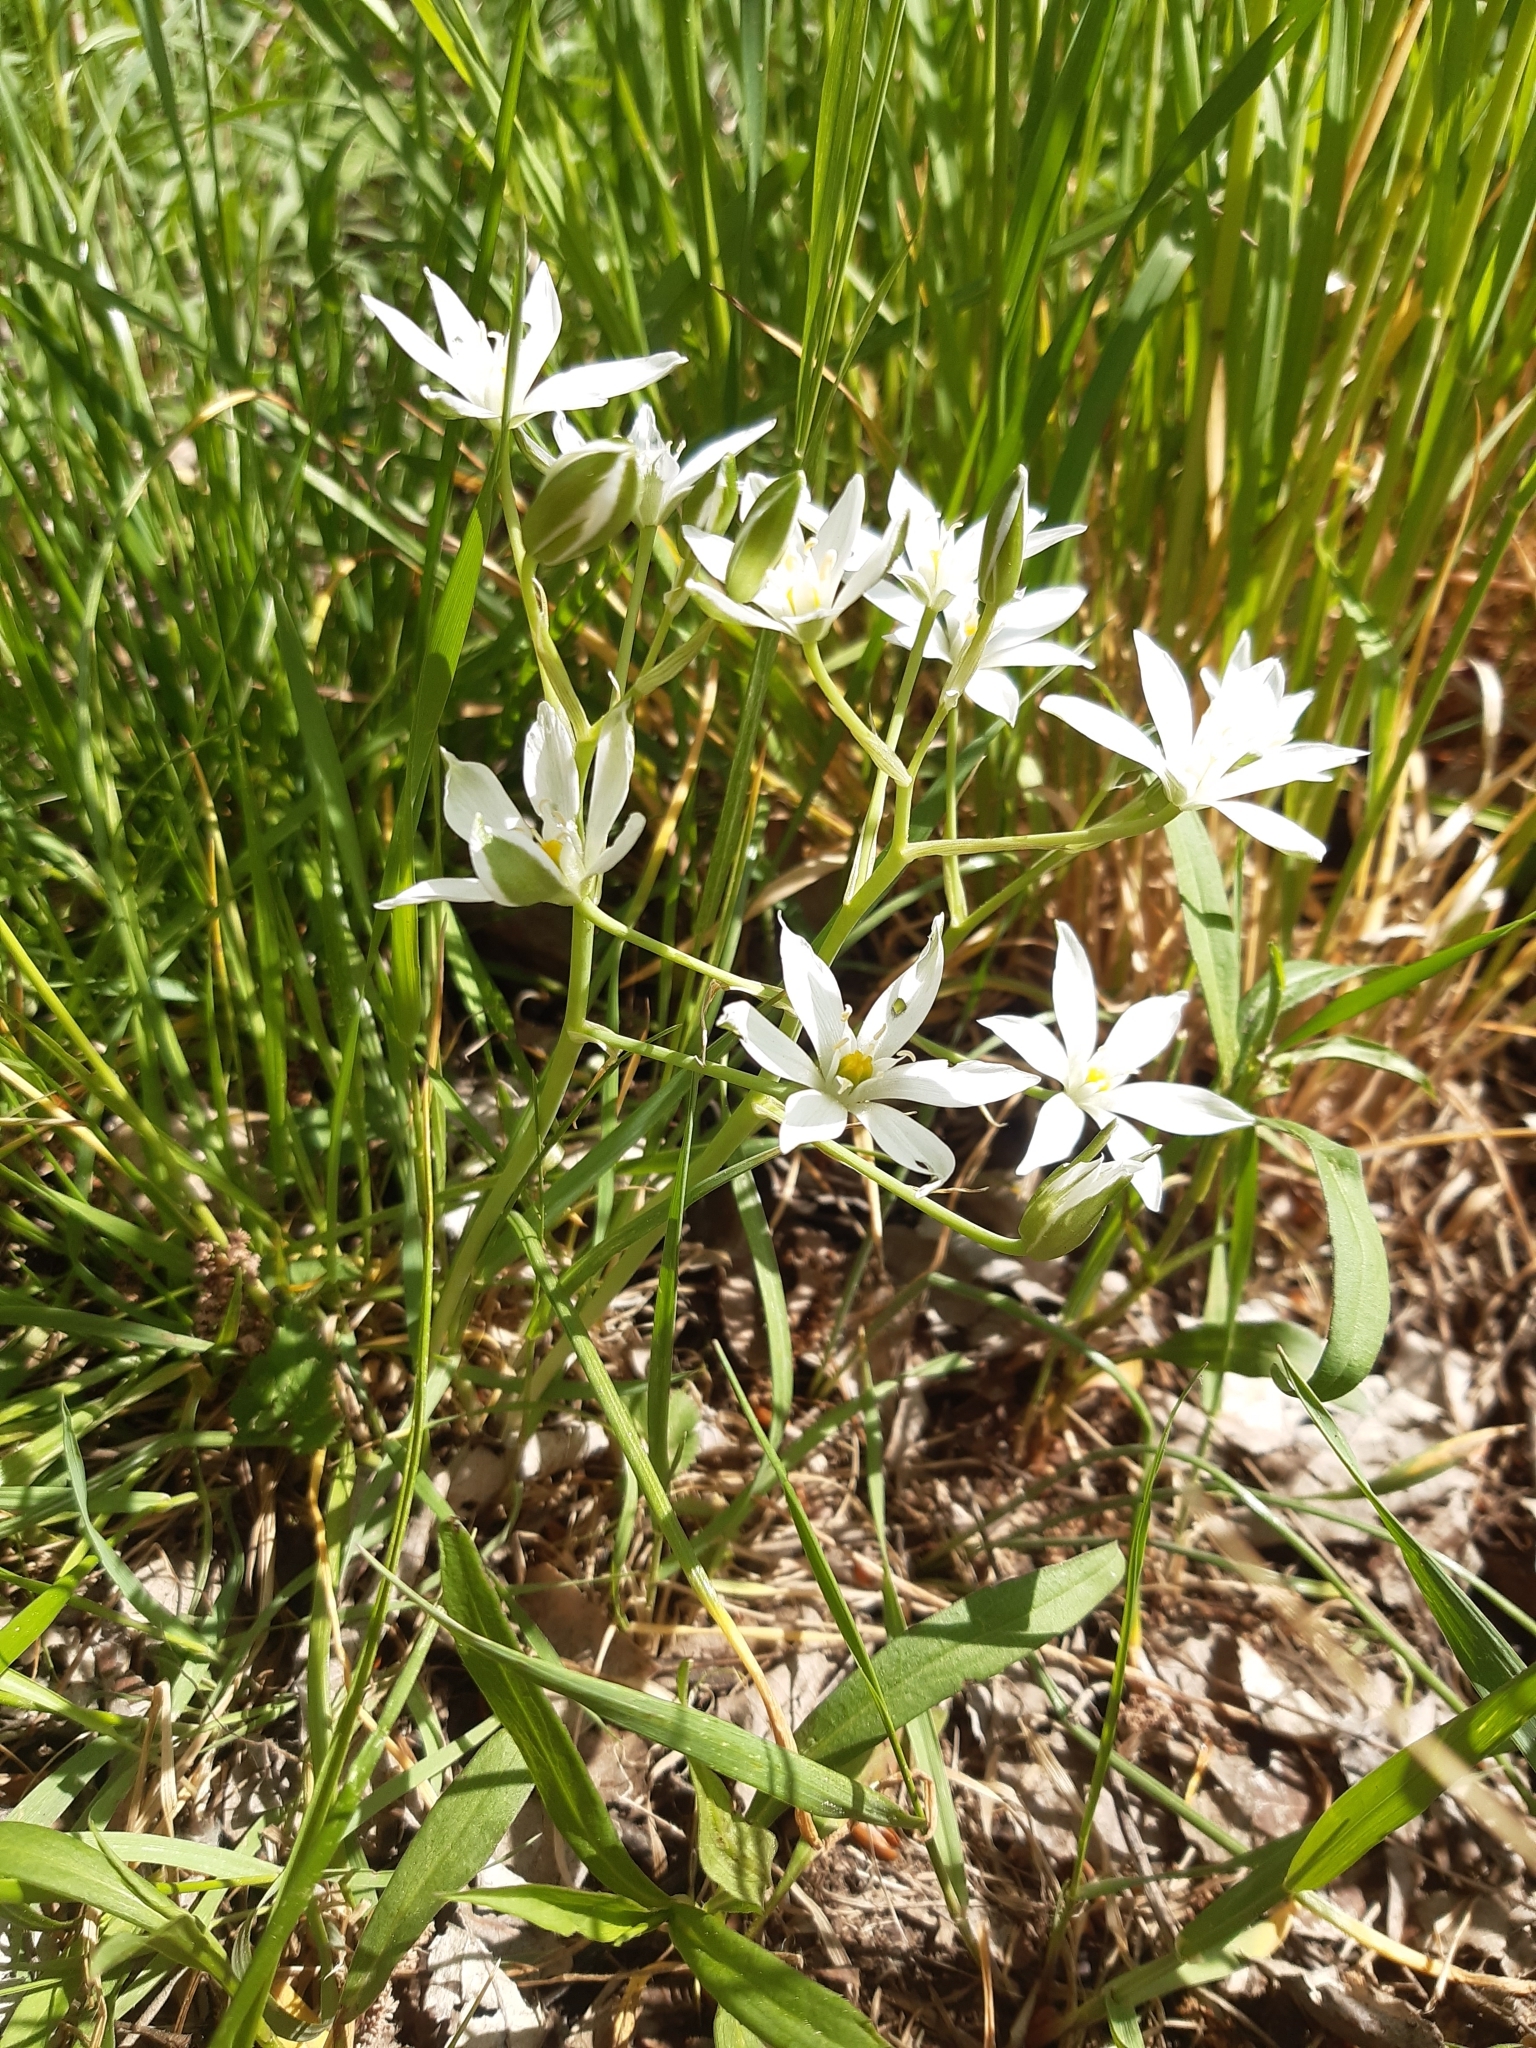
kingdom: Plantae
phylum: Tracheophyta
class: Liliopsida
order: Asparagales
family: Asparagaceae
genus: Ornithogalum
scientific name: Ornithogalum umbellatum
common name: Garden star-of-bethlehem
